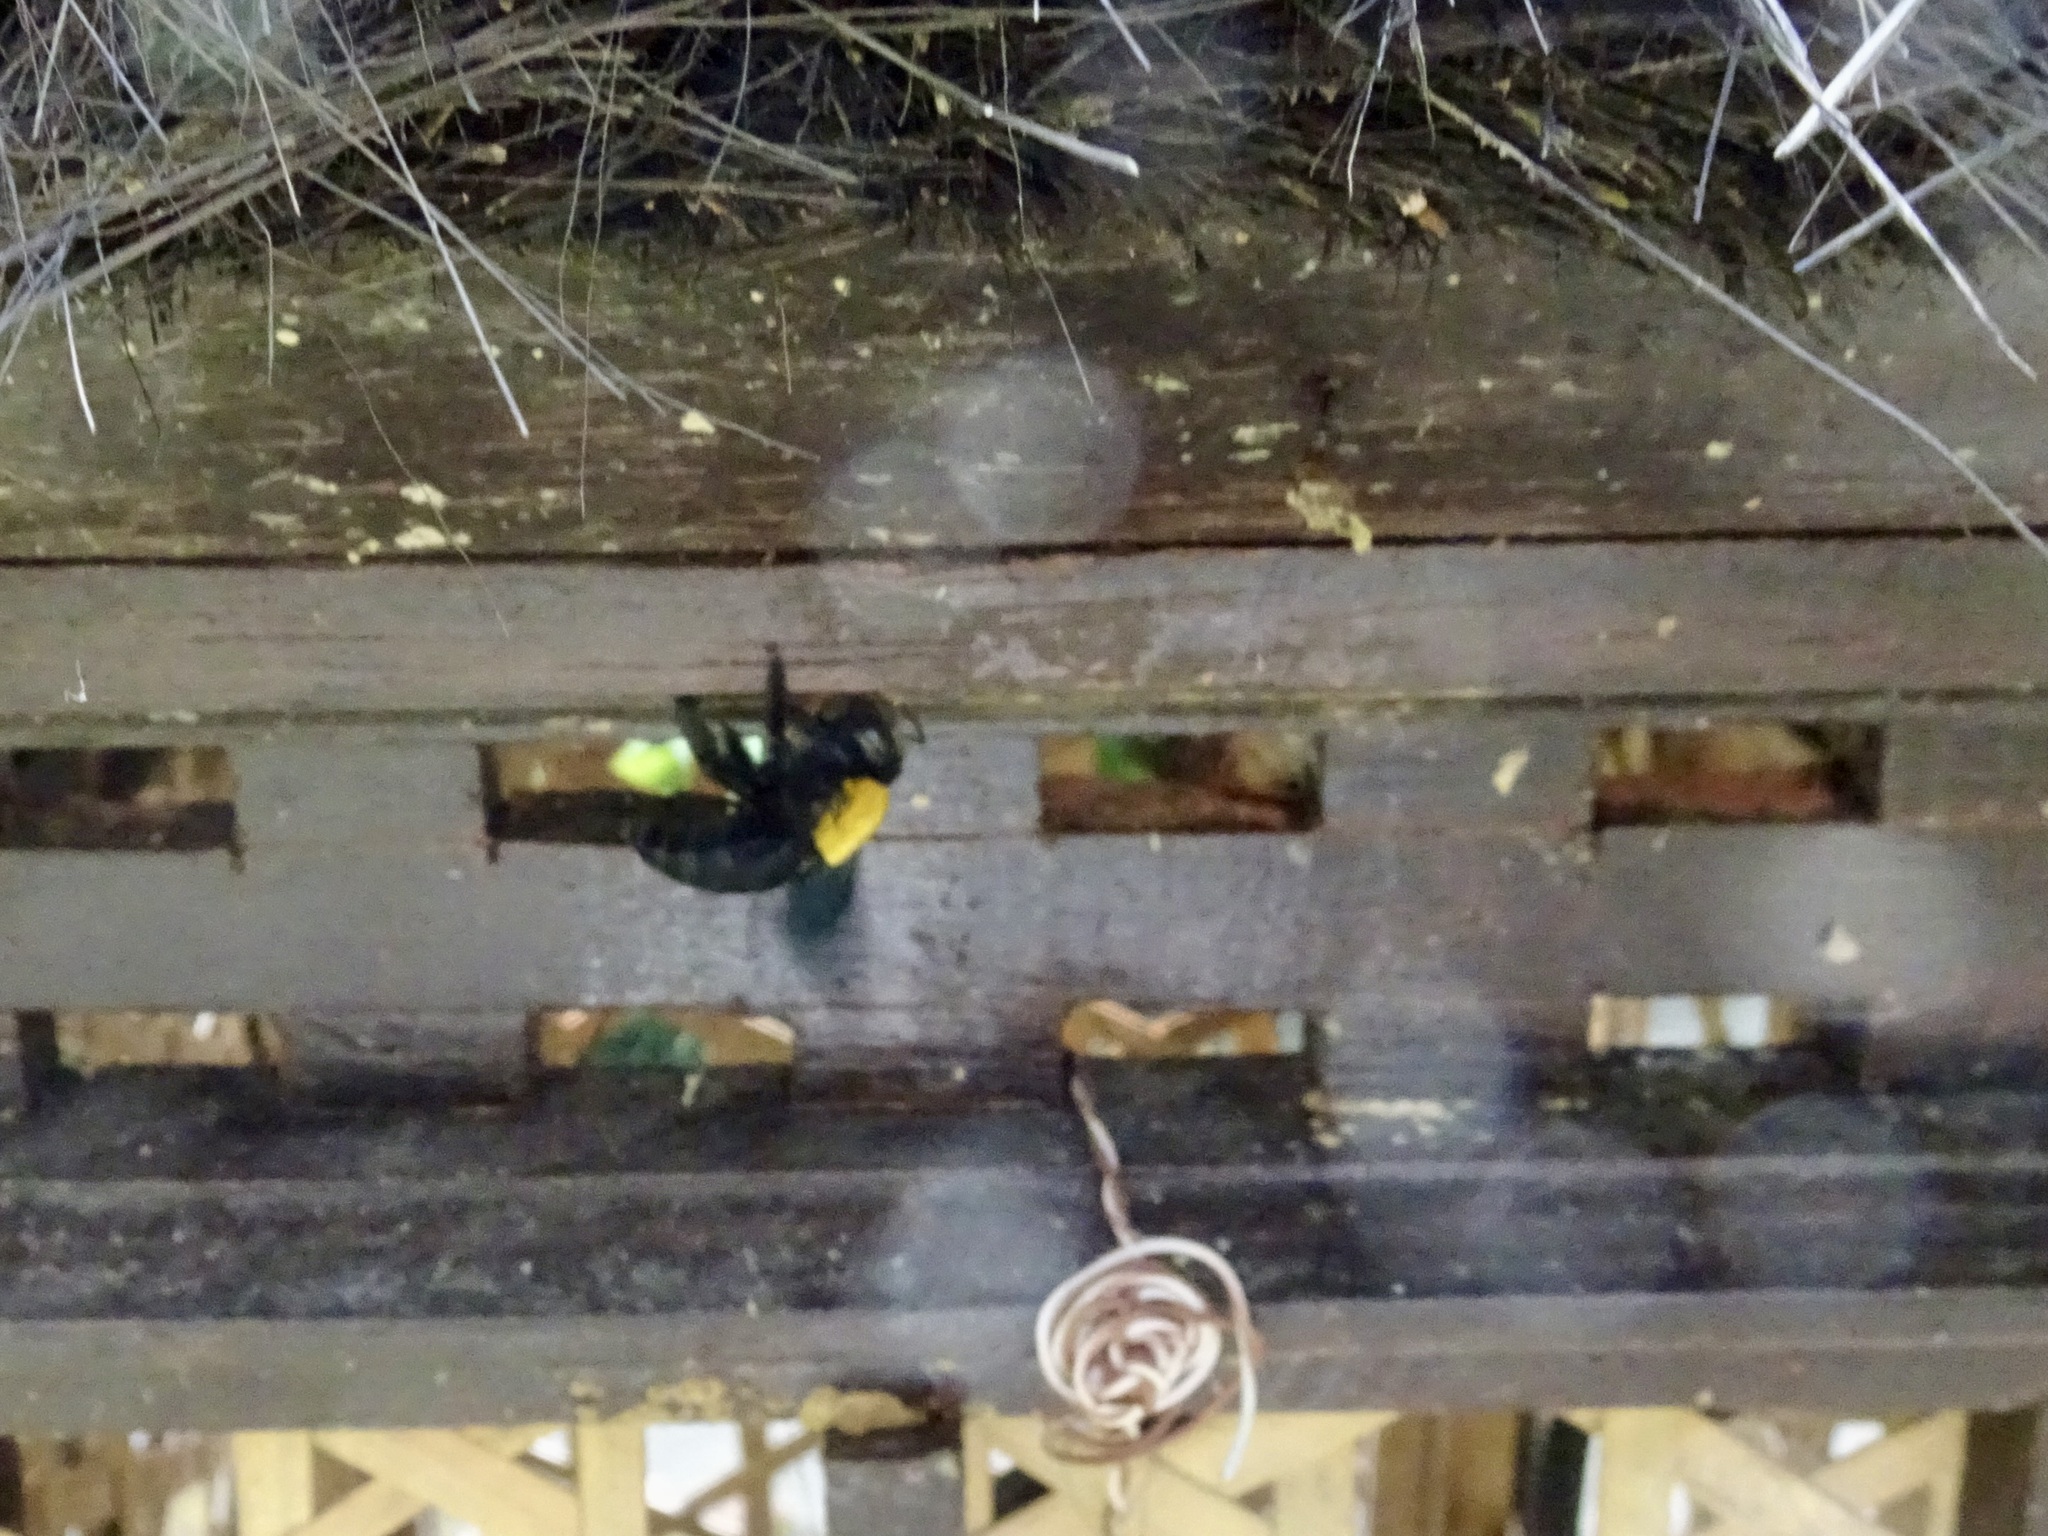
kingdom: Animalia
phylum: Arthropoda
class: Insecta
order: Hymenoptera
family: Apidae
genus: Xylocopa
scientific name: Xylocopa aestuans
